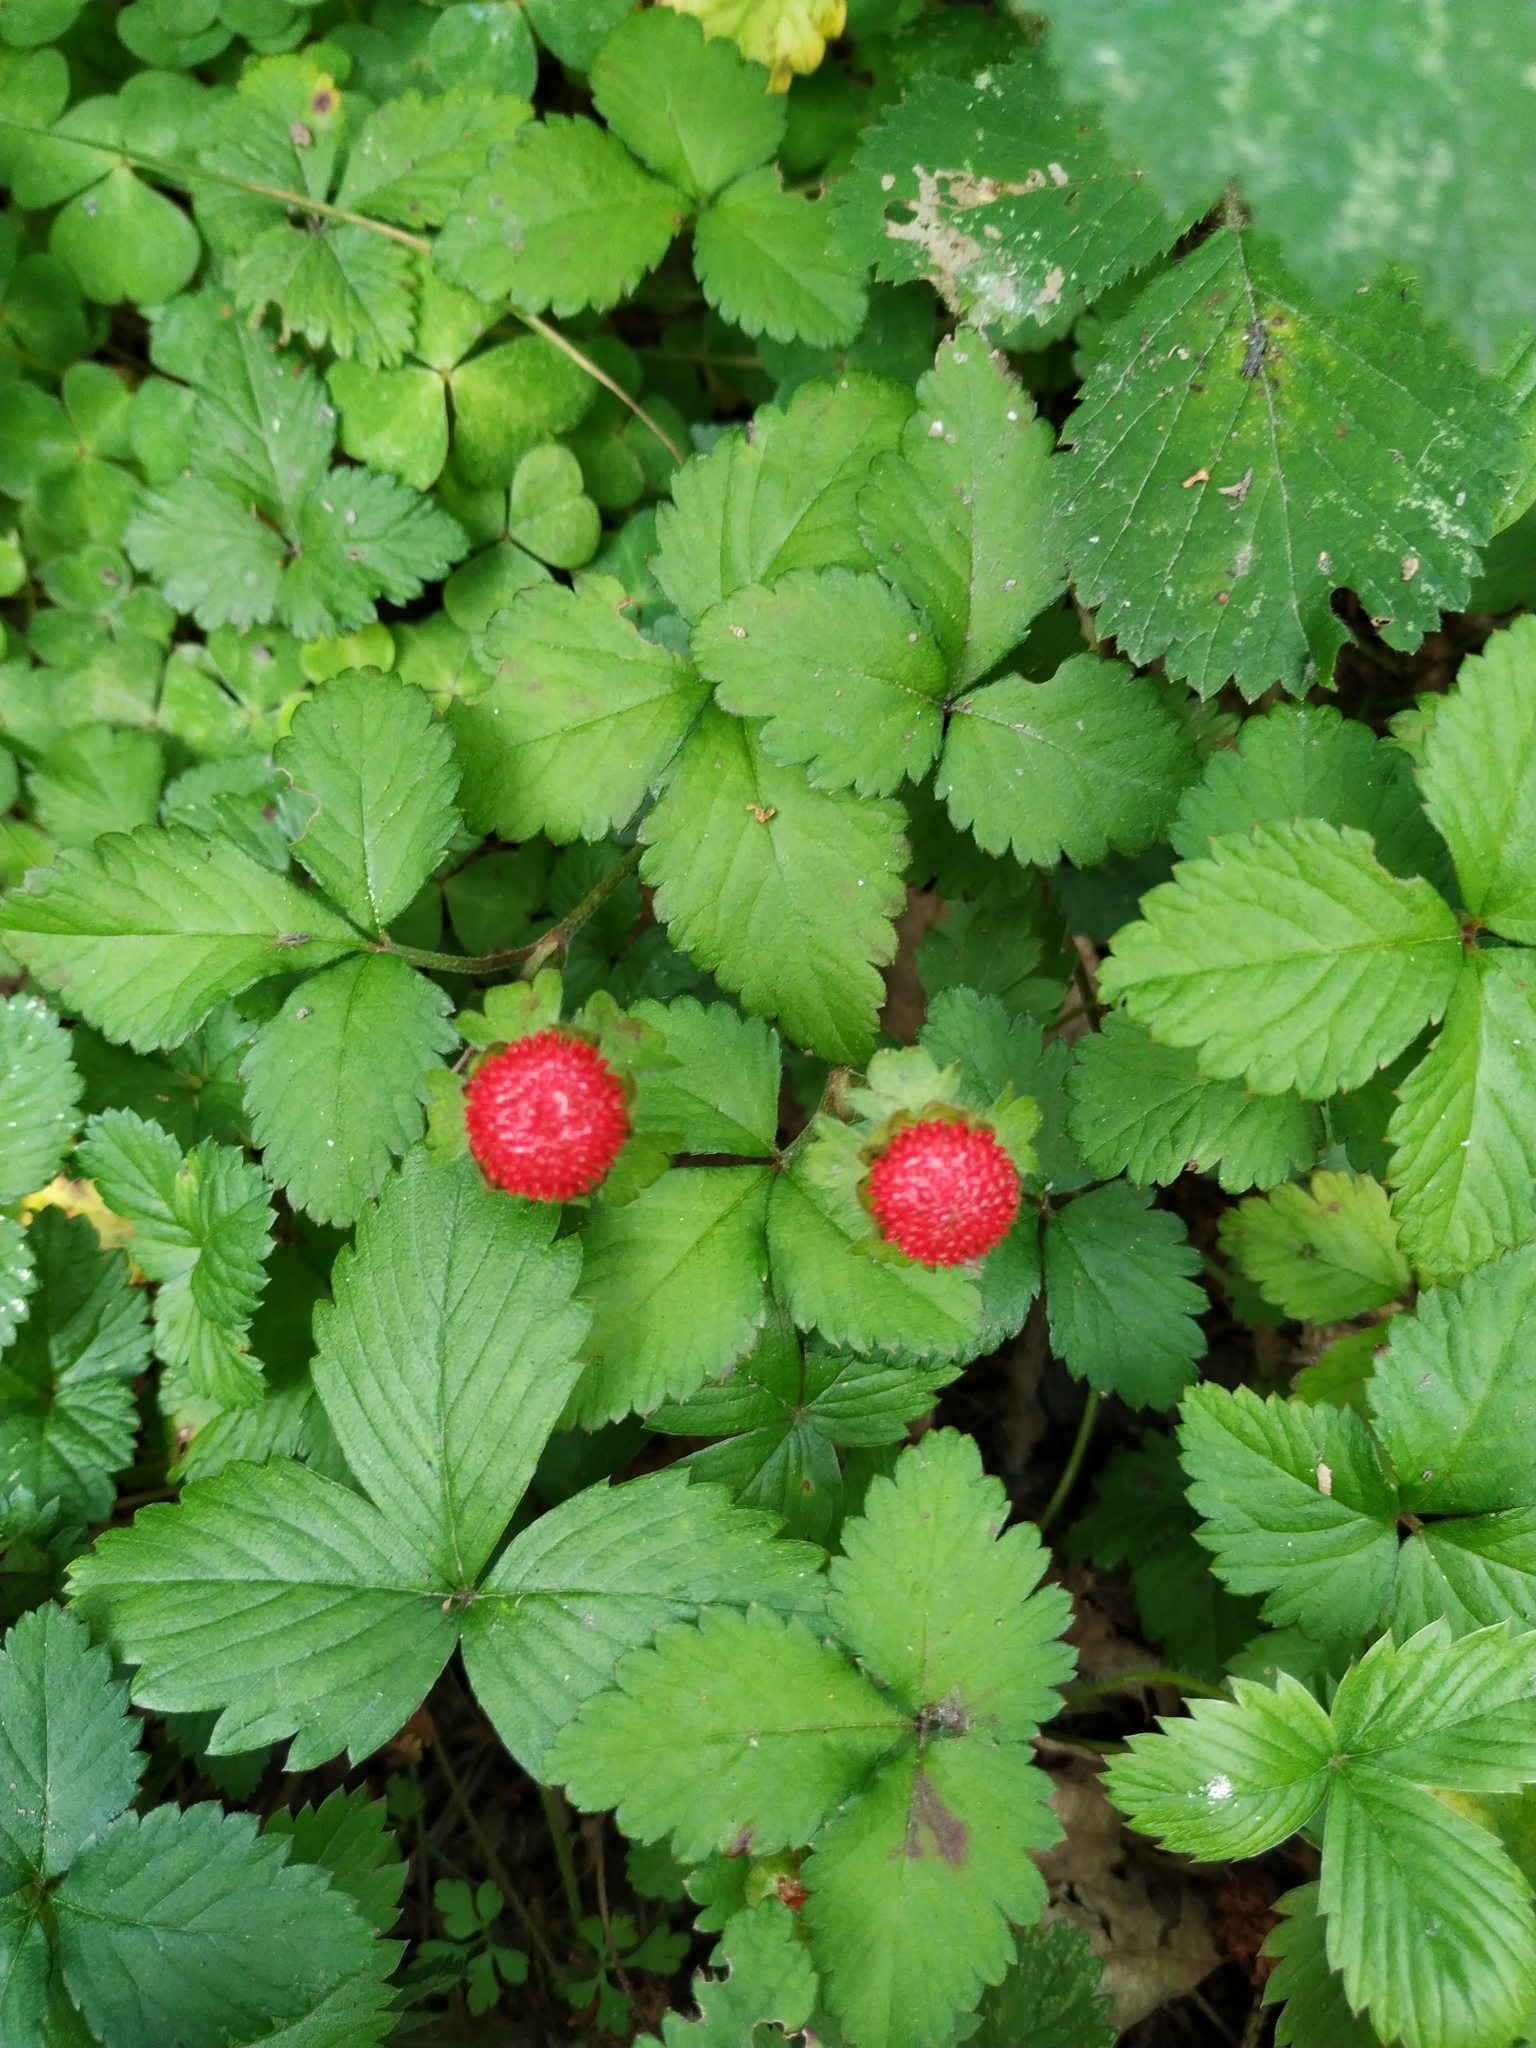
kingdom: Plantae
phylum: Tracheophyta
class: Magnoliopsida
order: Rosales
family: Rosaceae
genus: Potentilla
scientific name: Potentilla indica
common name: Yellow-flowered strawberry
